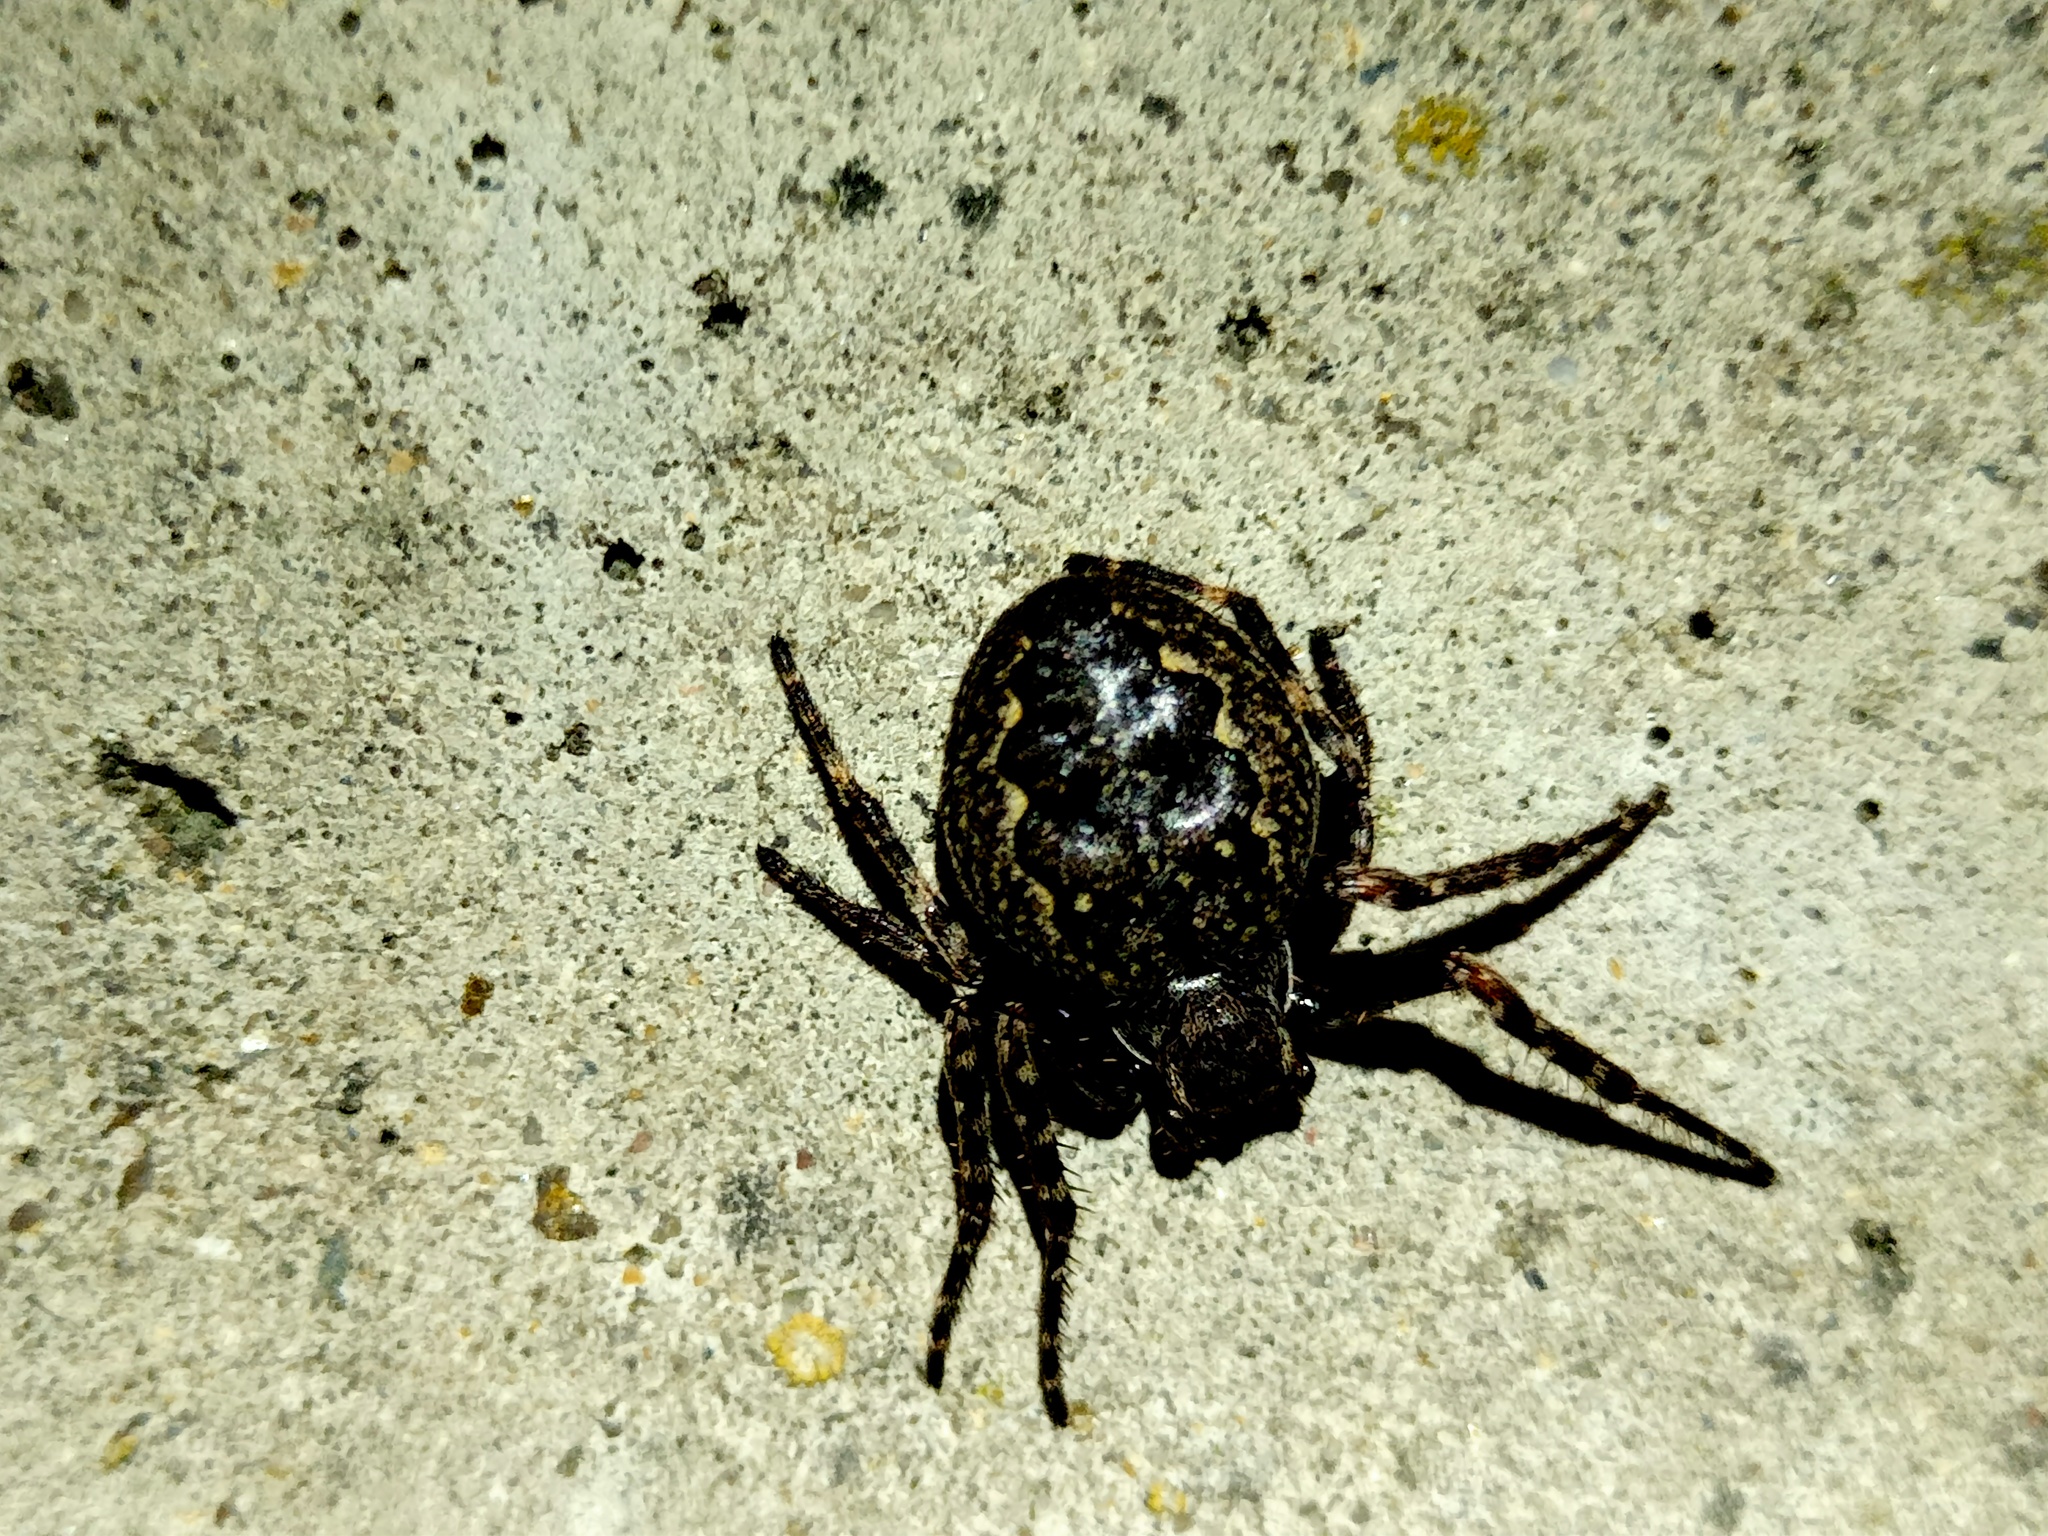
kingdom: Animalia
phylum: Arthropoda
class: Arachnida
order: Araneae
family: Araneidae
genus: Nuctenea
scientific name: Nuctenea umbratica
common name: Toad spider
